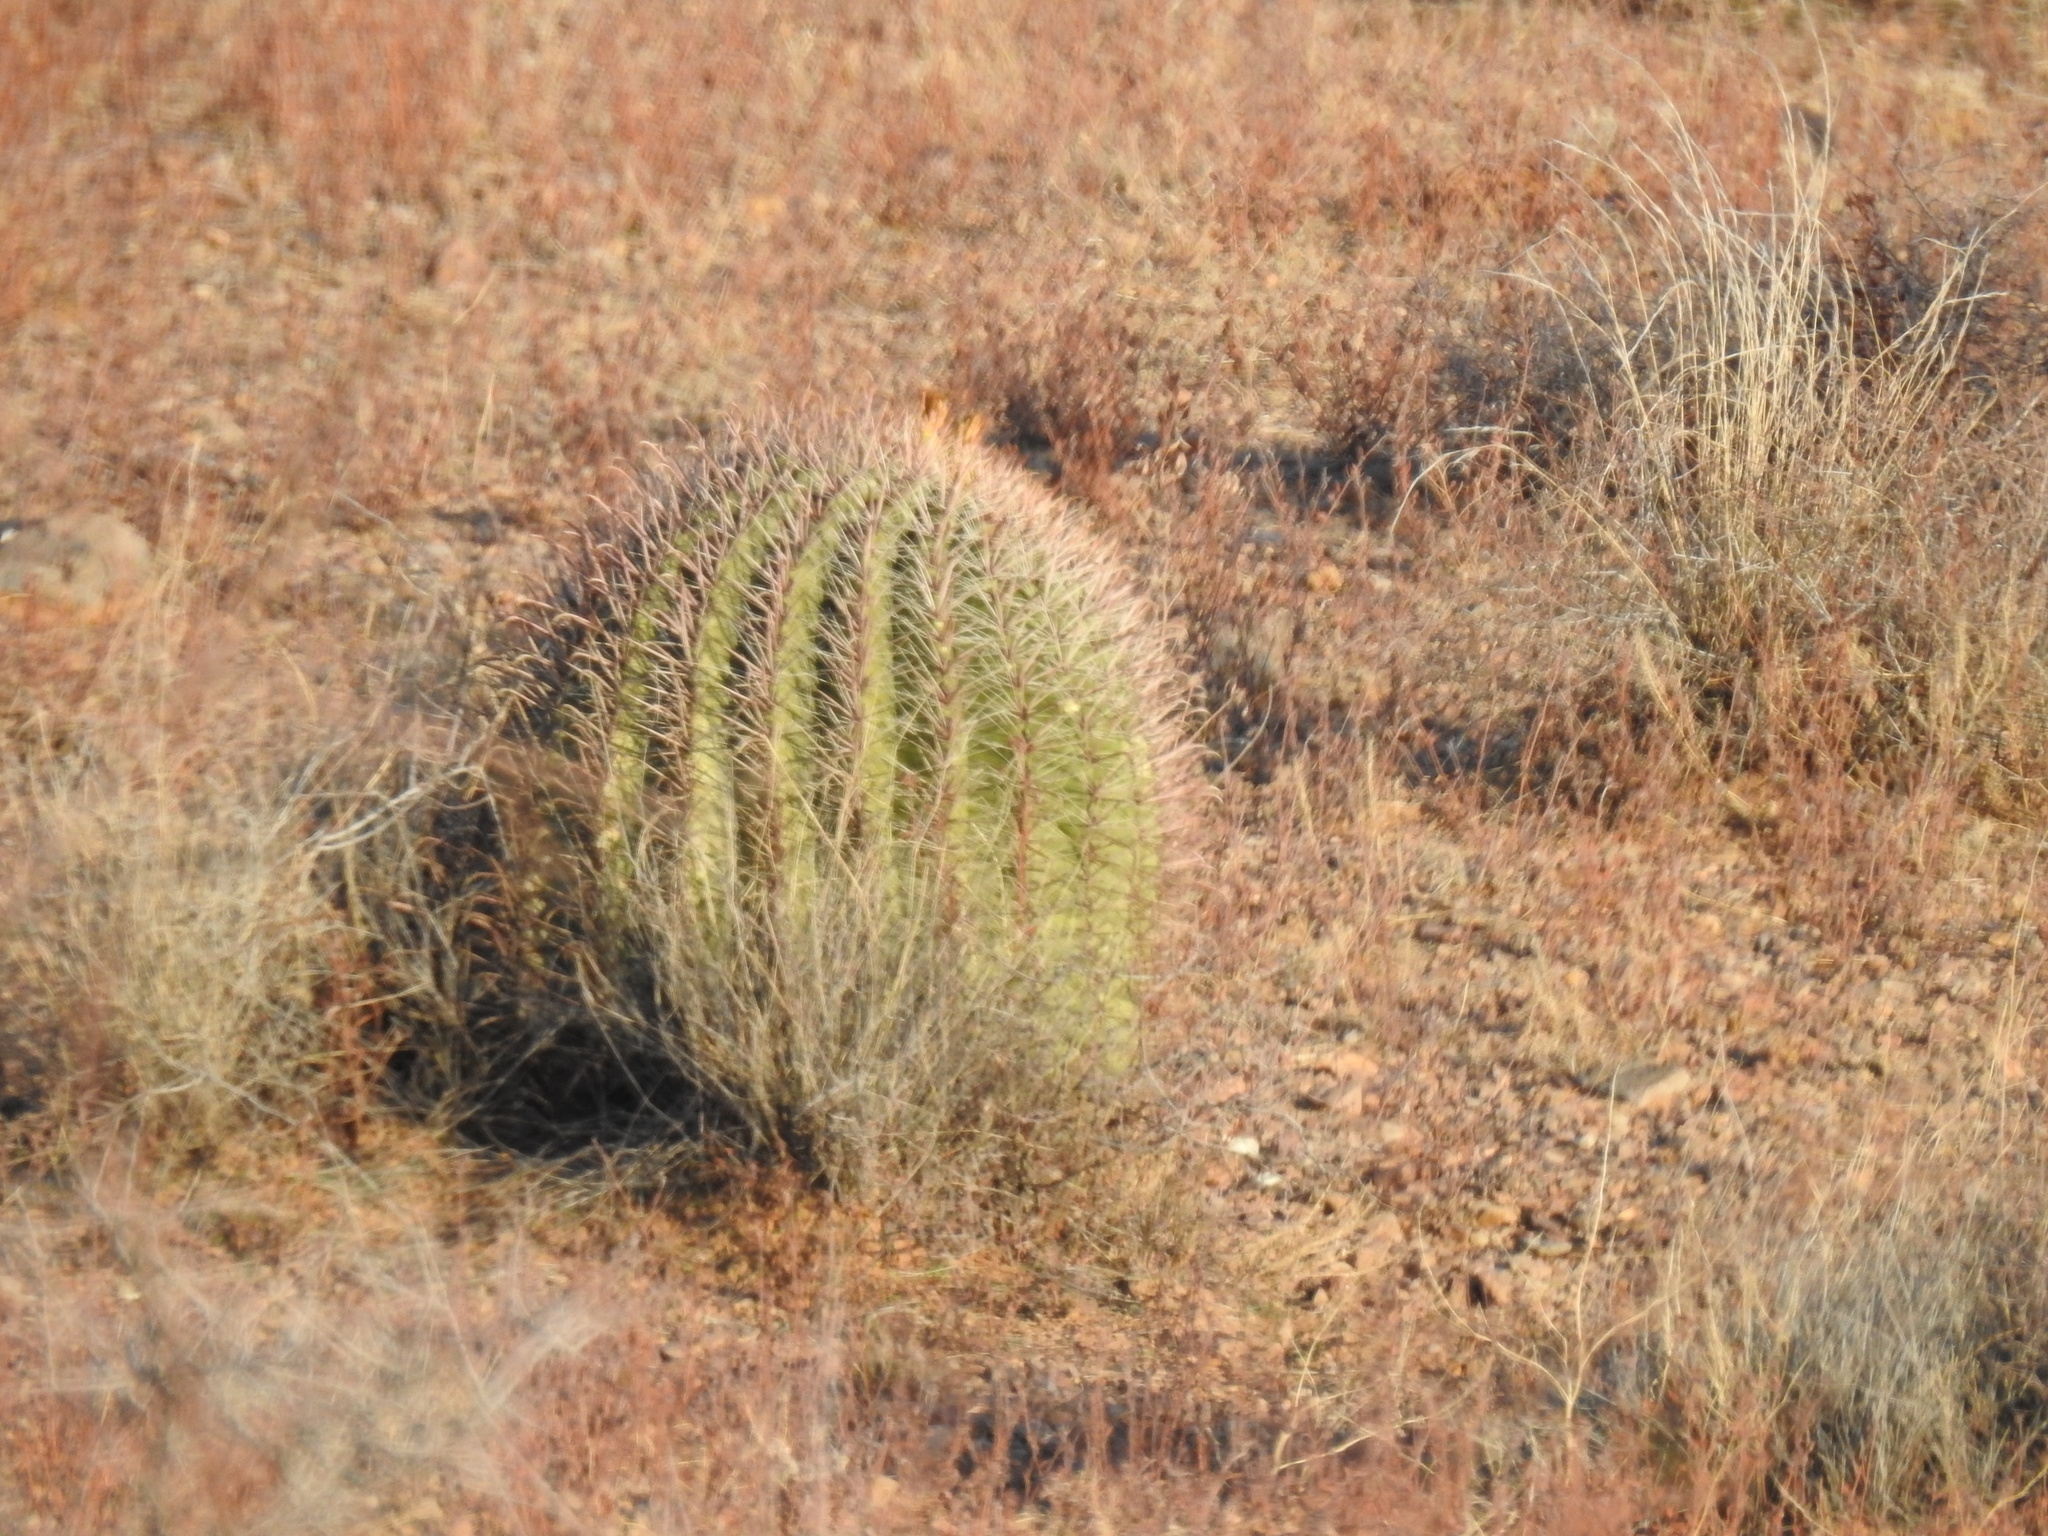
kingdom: Plantae
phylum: Tracheophyta
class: Magnoliopsida
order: Caryophyllales
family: Cactaceae
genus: Ferocactus
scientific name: Ferocactus wislizeni
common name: Candy barrel cactus
